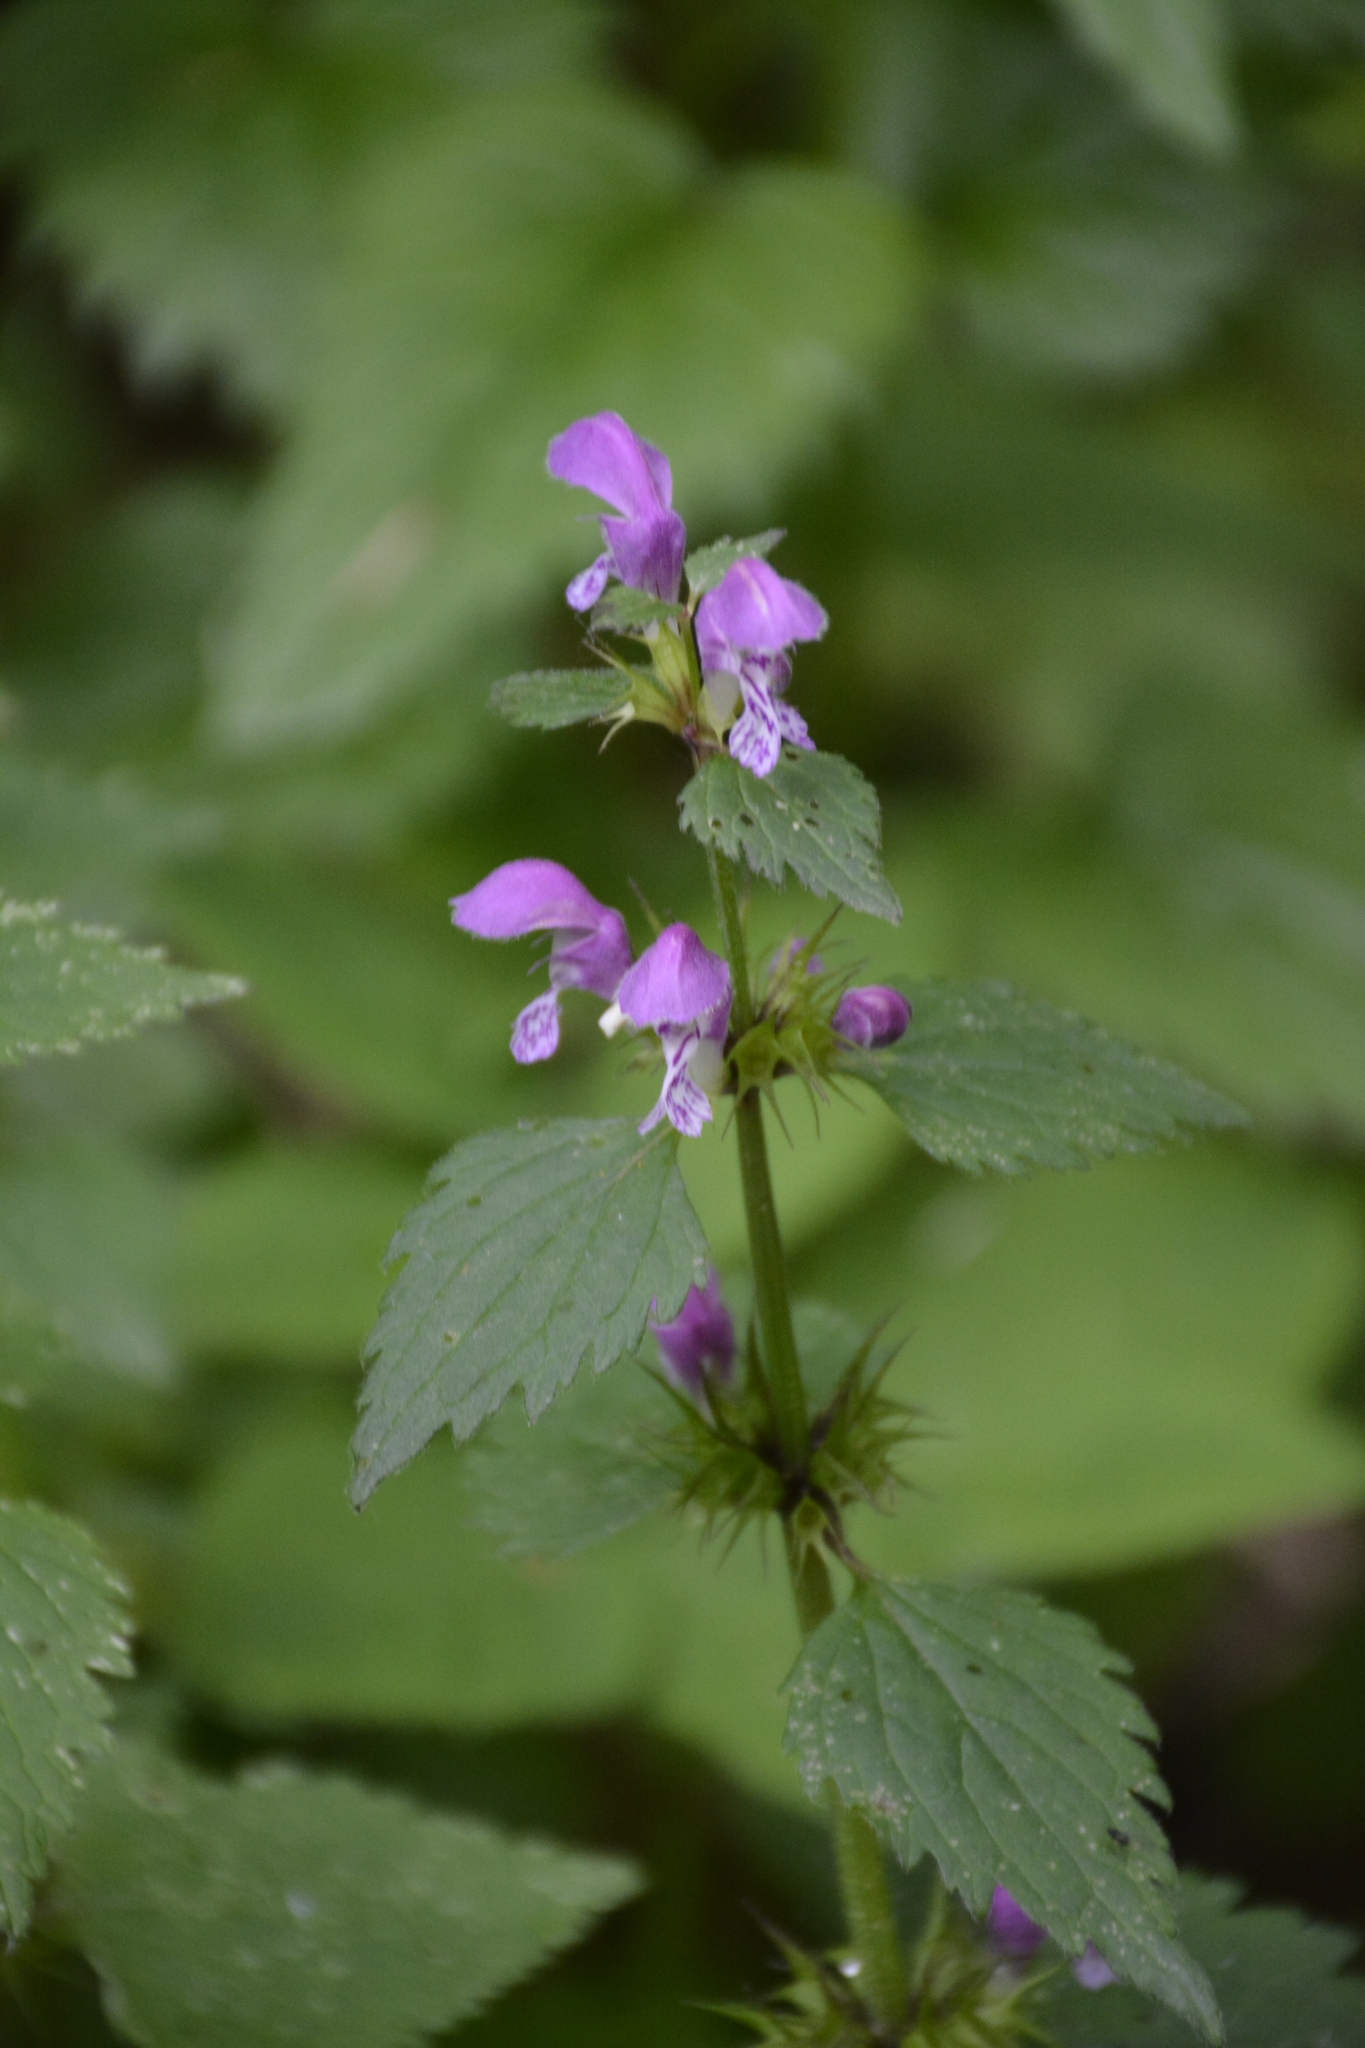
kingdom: Plantae
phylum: Tracheophyta
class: Magnoliopsida
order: Lamiales
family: Lamiaceae
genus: Lamium
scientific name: Lamium maculatum
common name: Spotted dead-nettle
